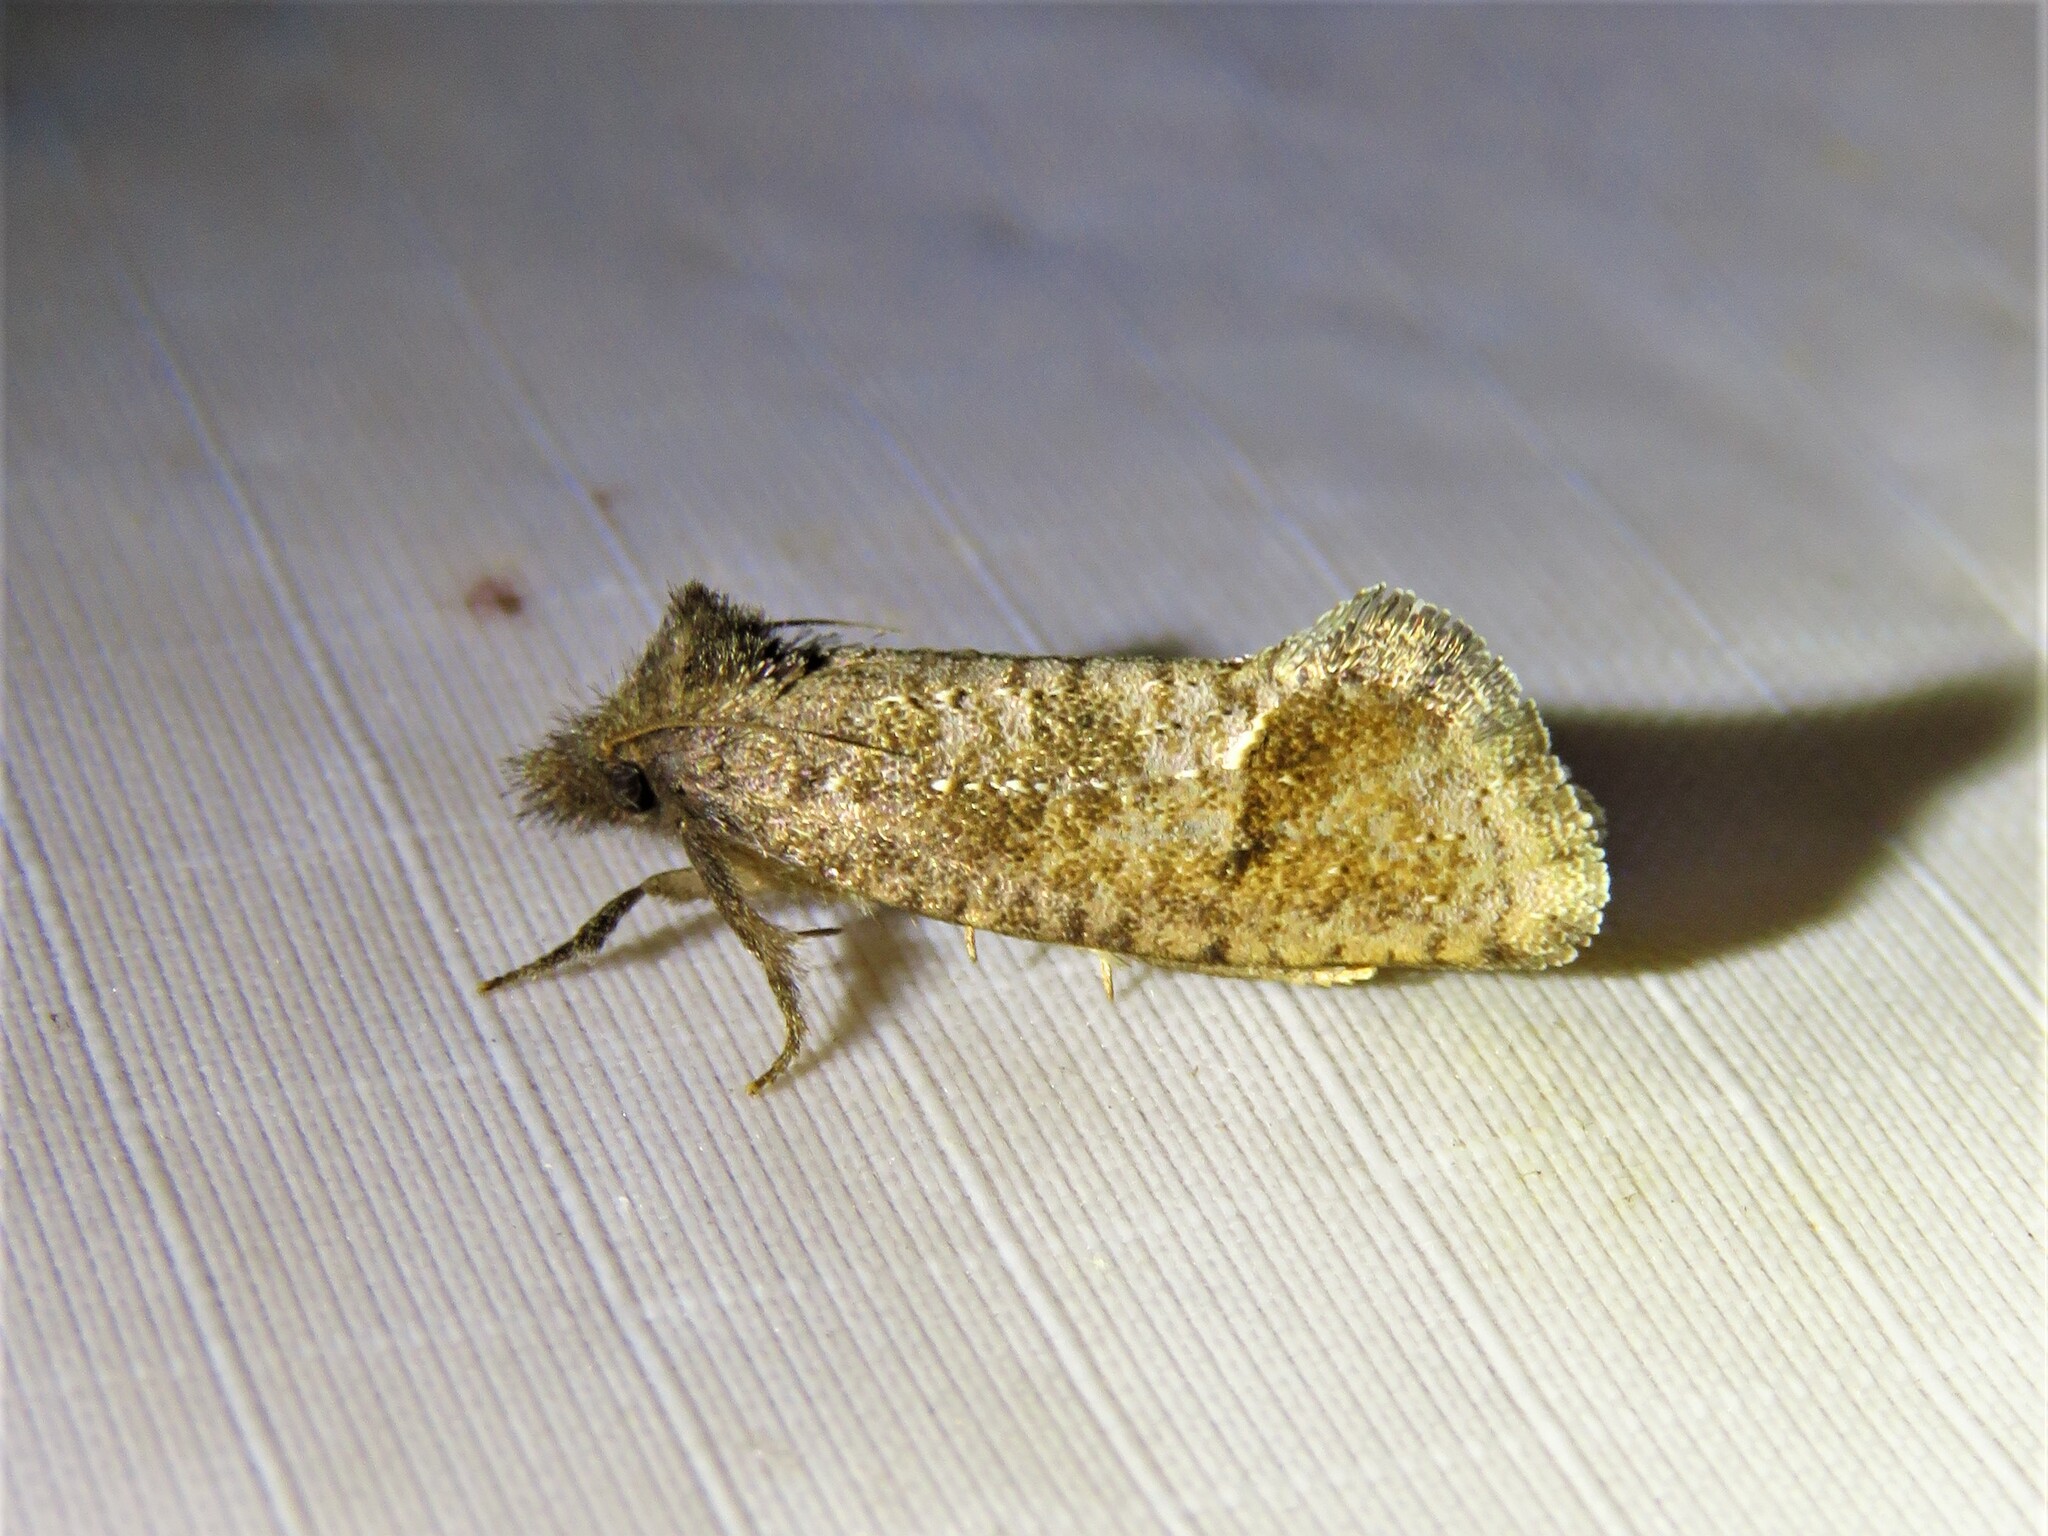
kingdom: Animalia
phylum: Arthropoda
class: Insecta
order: Lepidoptera
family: Tineidae
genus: Acrolophus
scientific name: Acrolophus texanella
